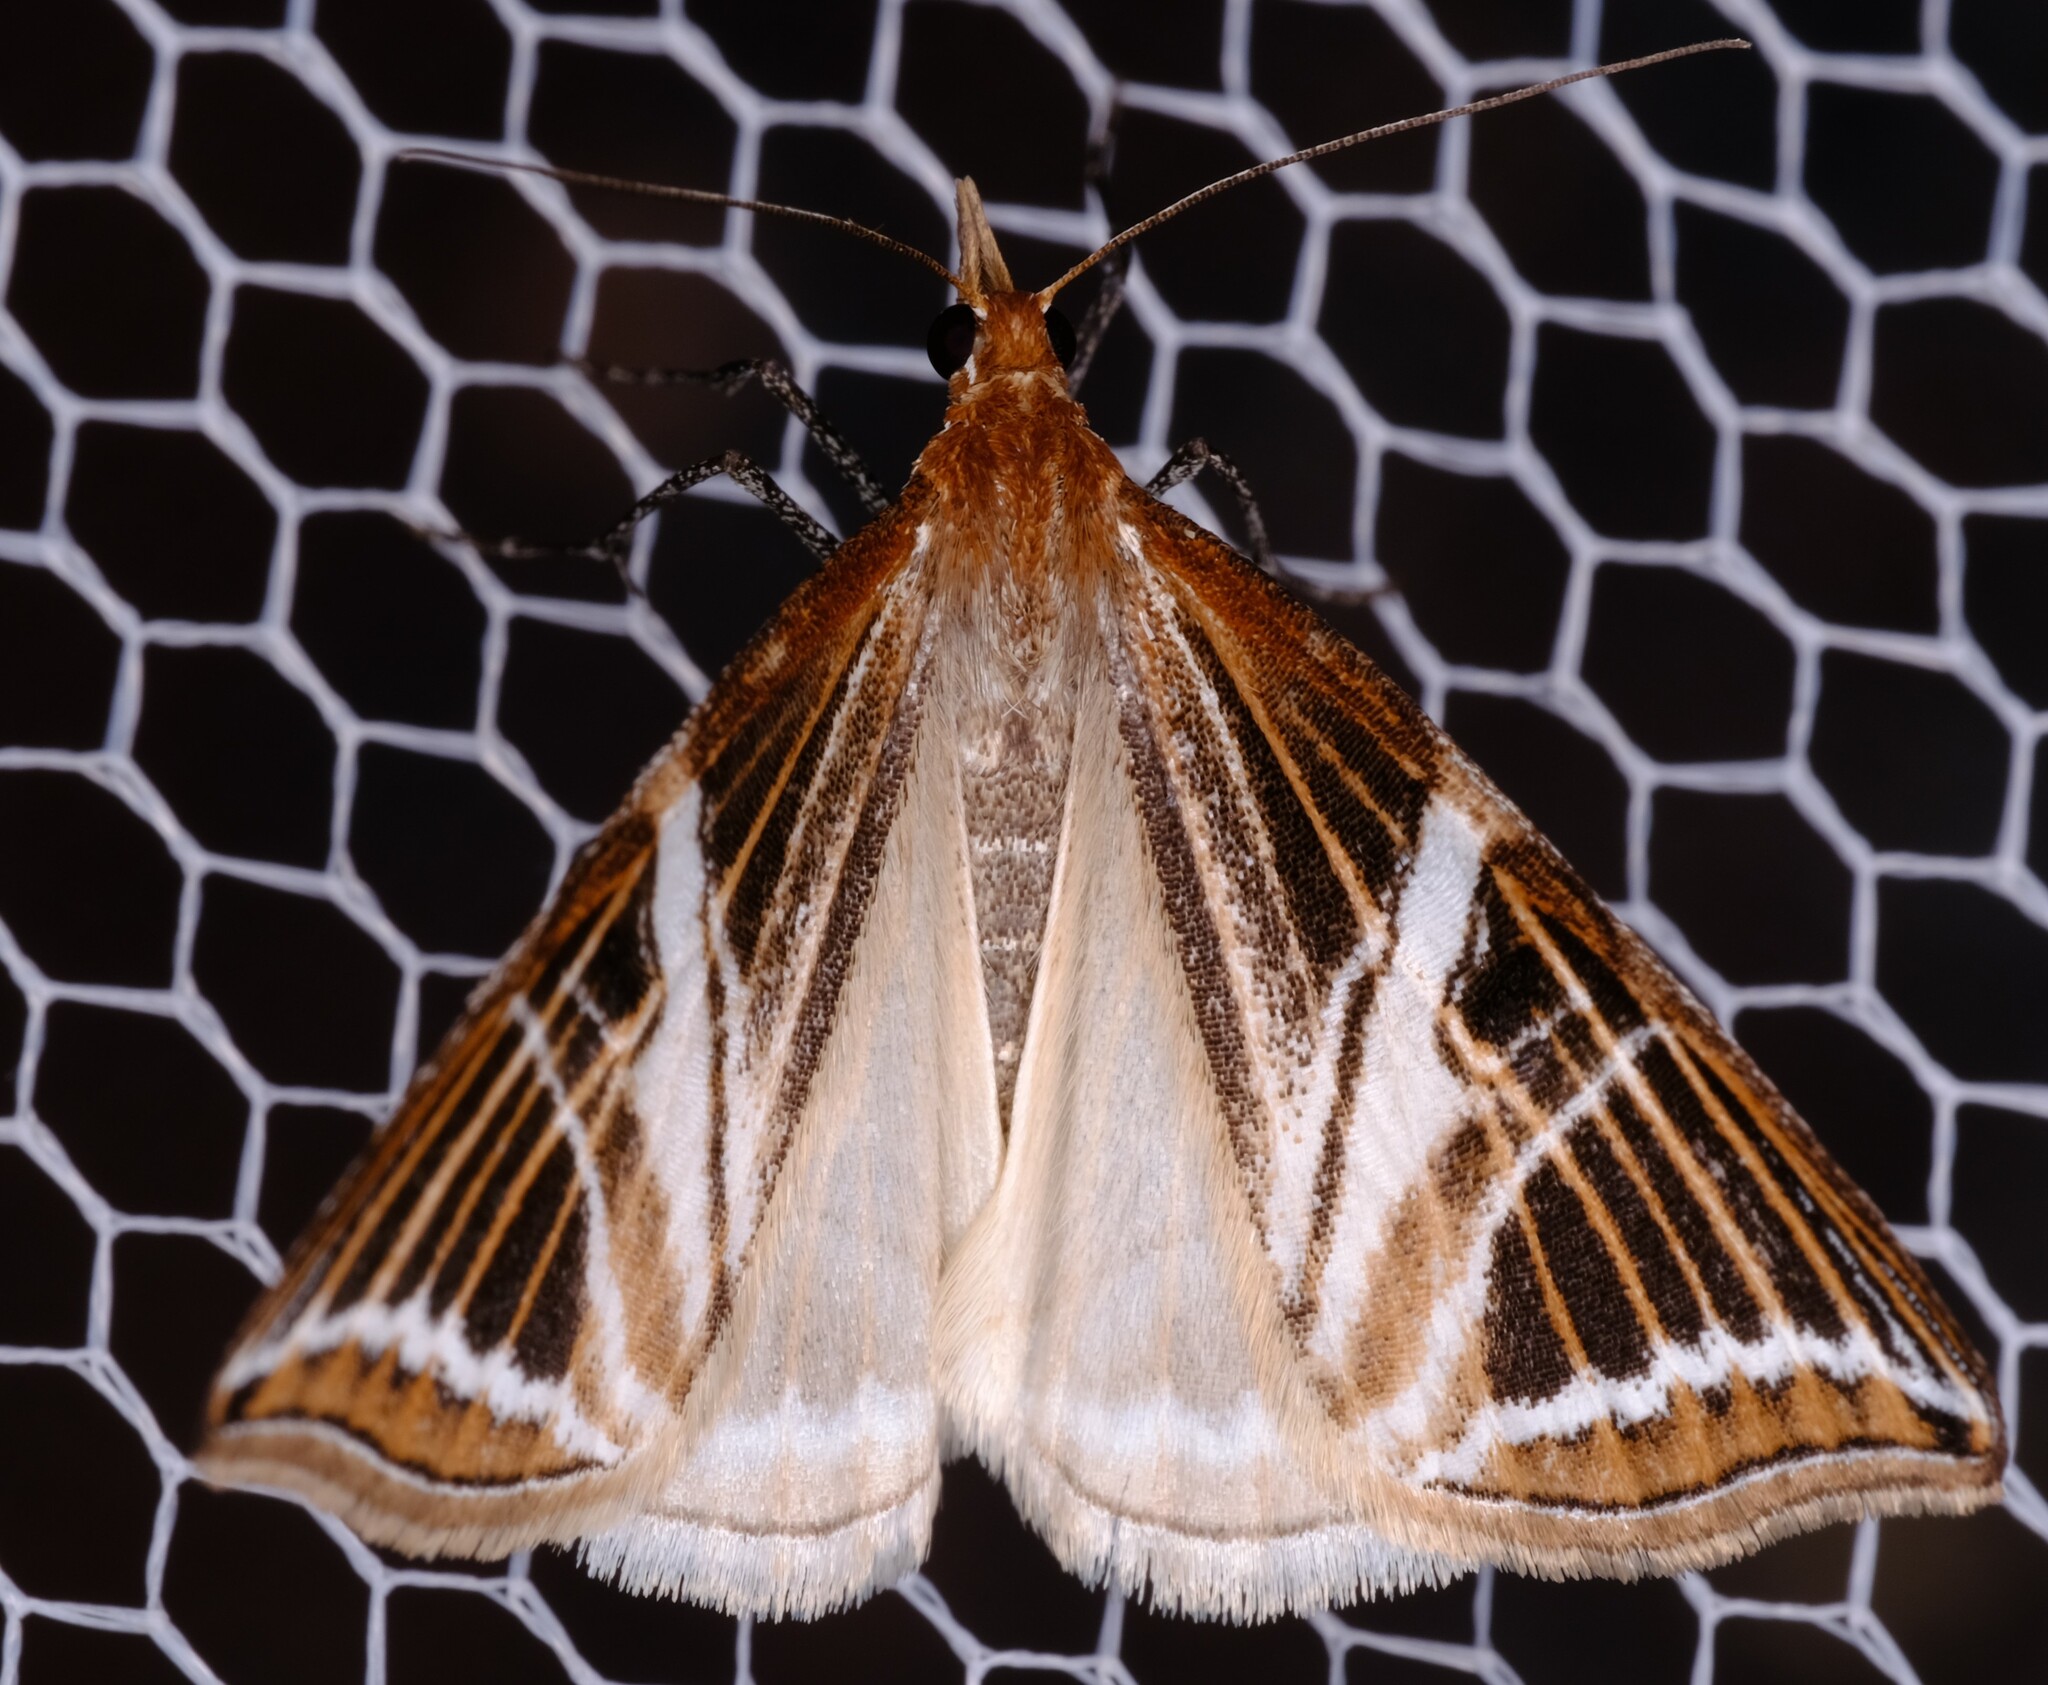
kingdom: Animalia
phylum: Arthropoda
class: Insecta
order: Lepidoptera
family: Geometridae
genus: Phrataria
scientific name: Phrataria transcissata
